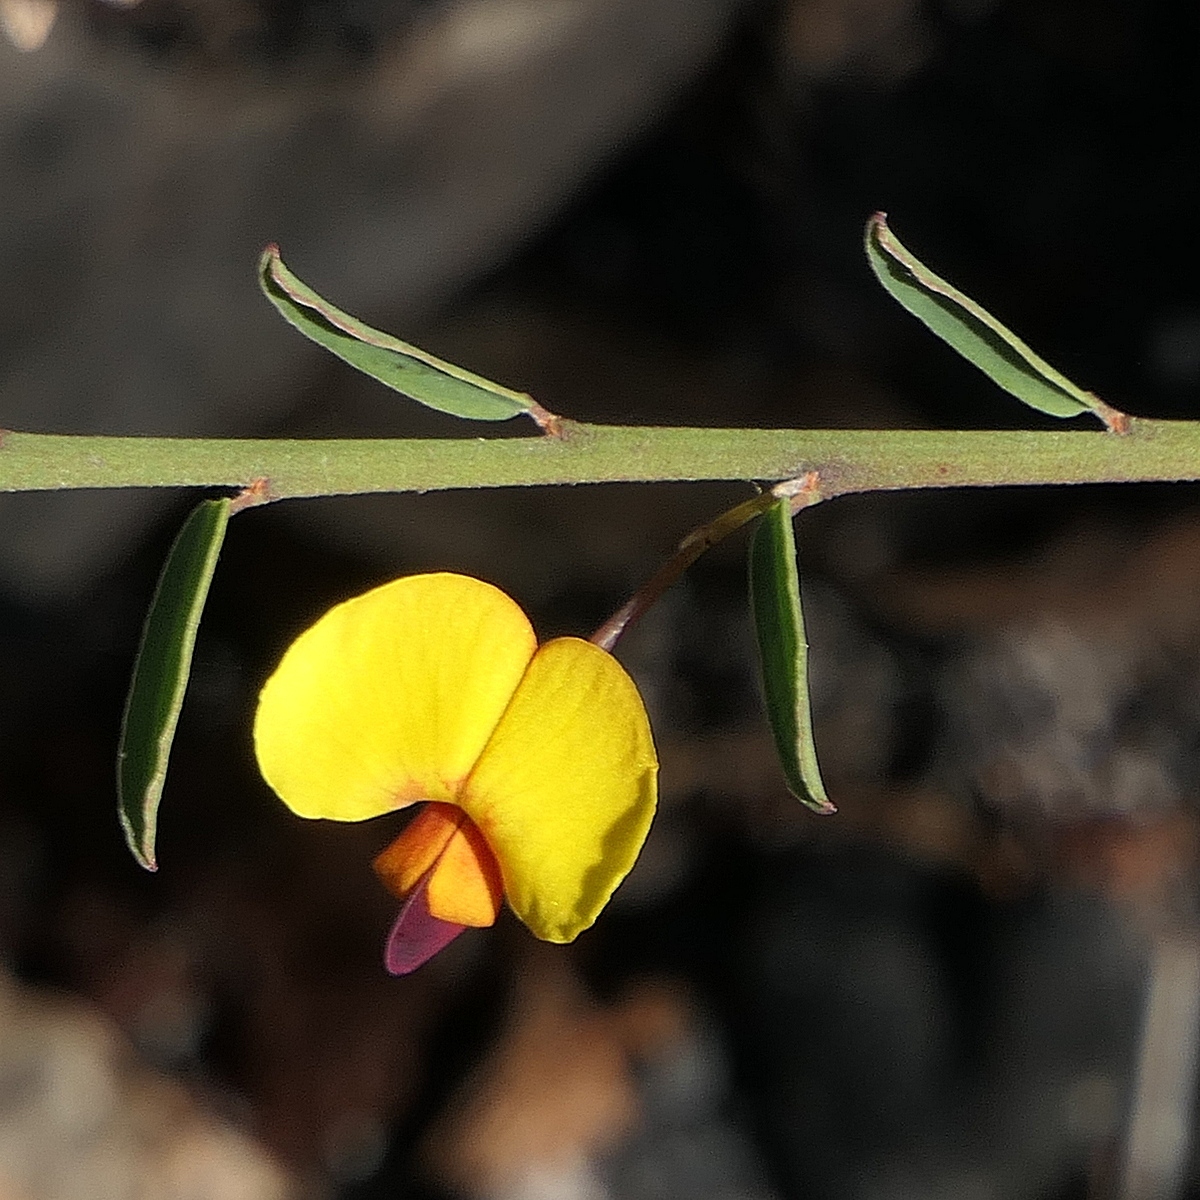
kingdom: Plantae
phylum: Tracheophyta
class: Magnoliopsida
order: Fabales
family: Fabaceae
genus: Bossiaea
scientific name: Bossiaea heterophylla
